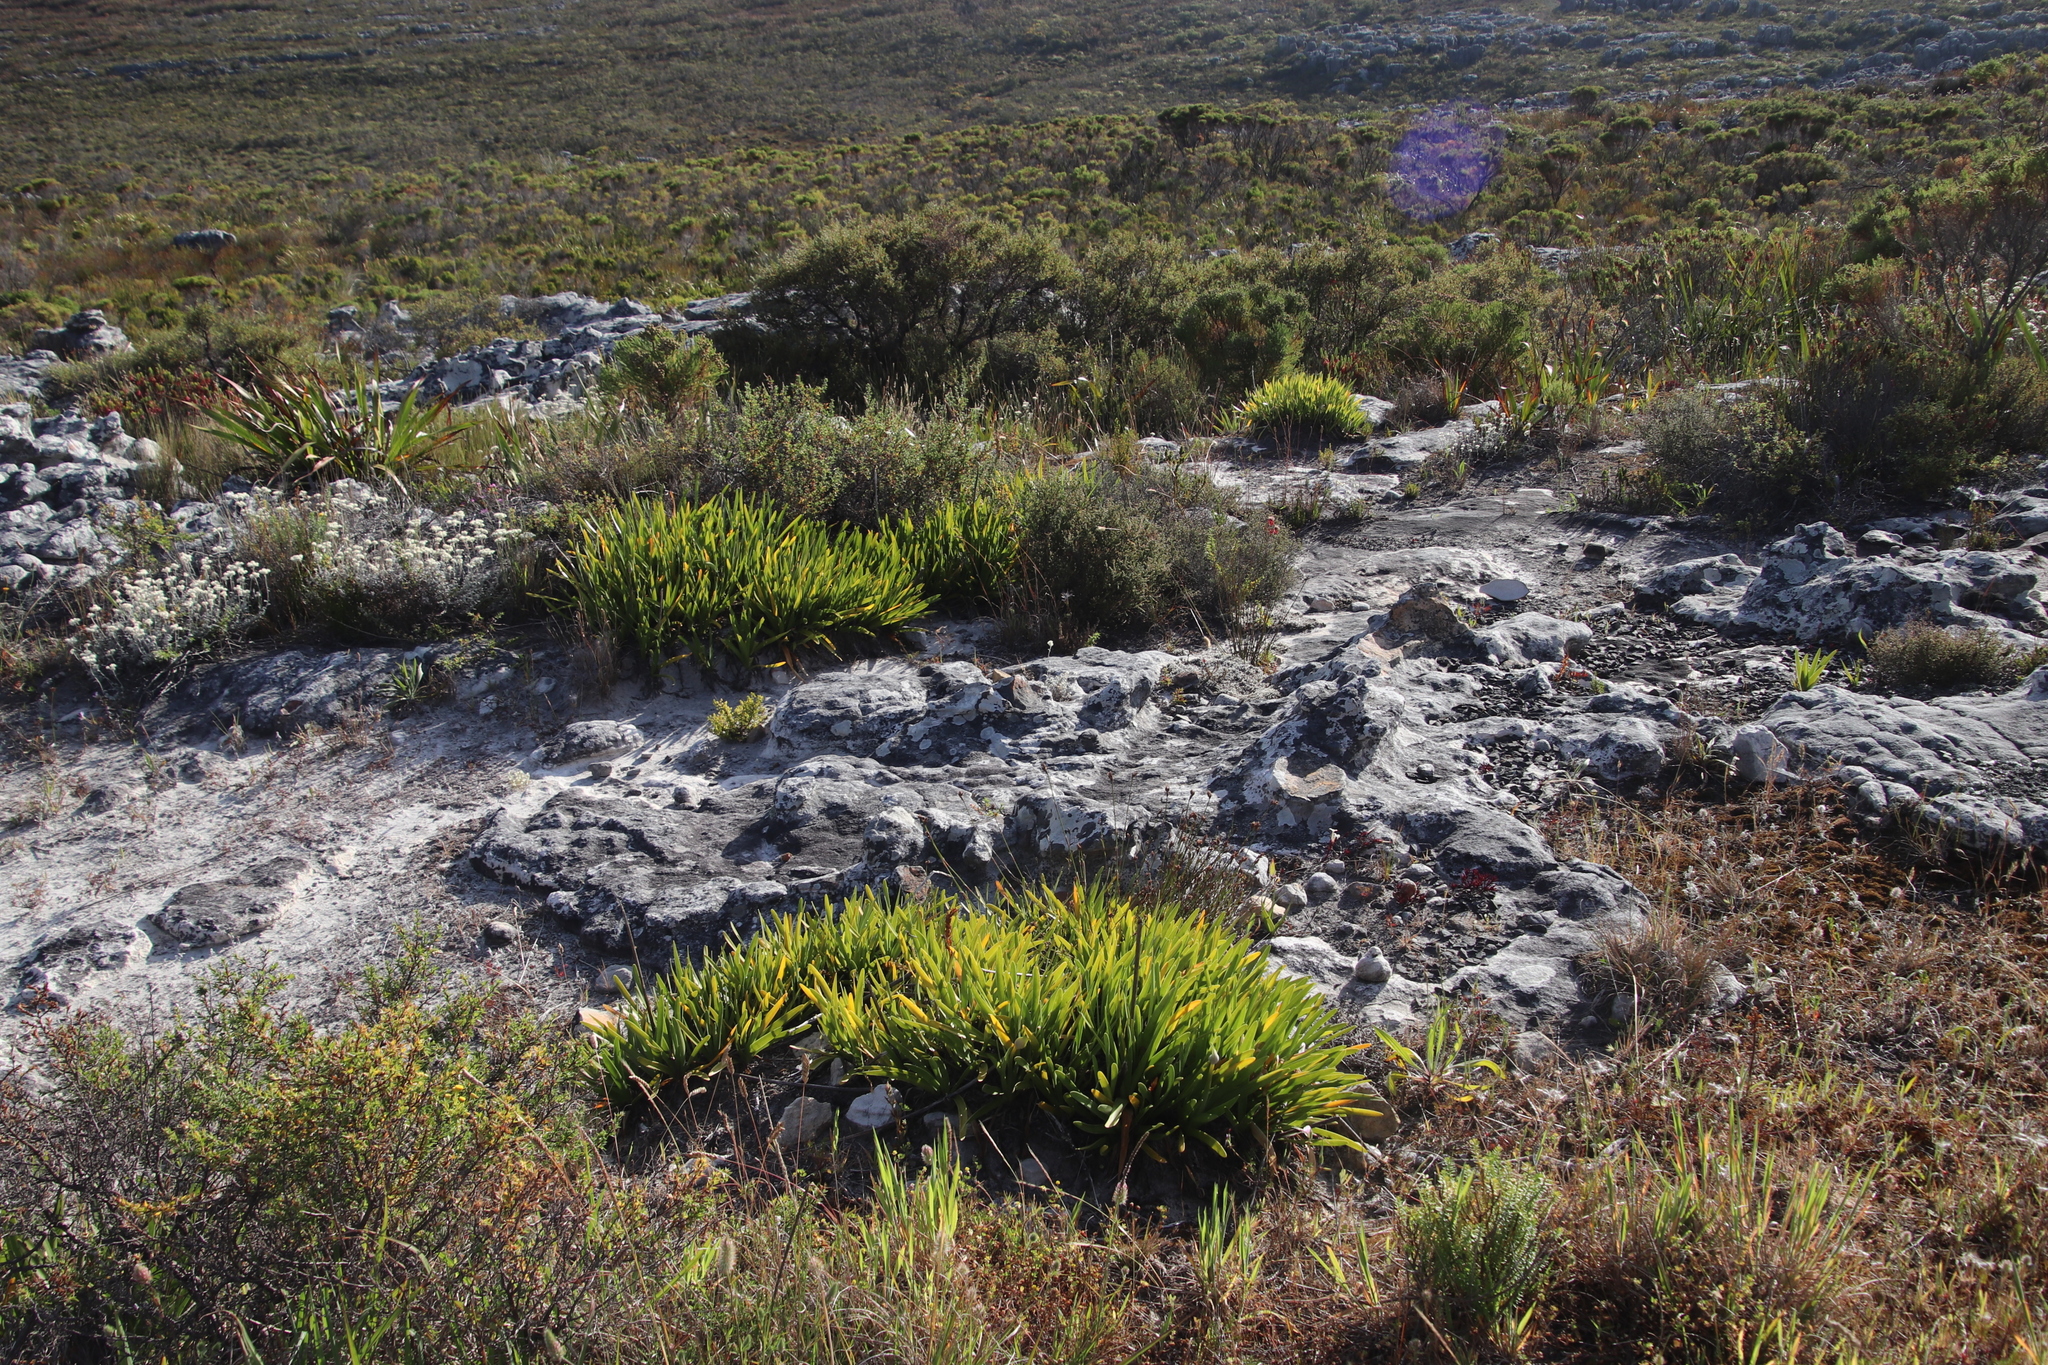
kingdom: Plantae
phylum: Tracheophyta
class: Liliopsida
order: Asparagales
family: Amaryllidaceae
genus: Agapanthus
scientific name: Agapanthus africanus
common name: Lily-of-the-nile
